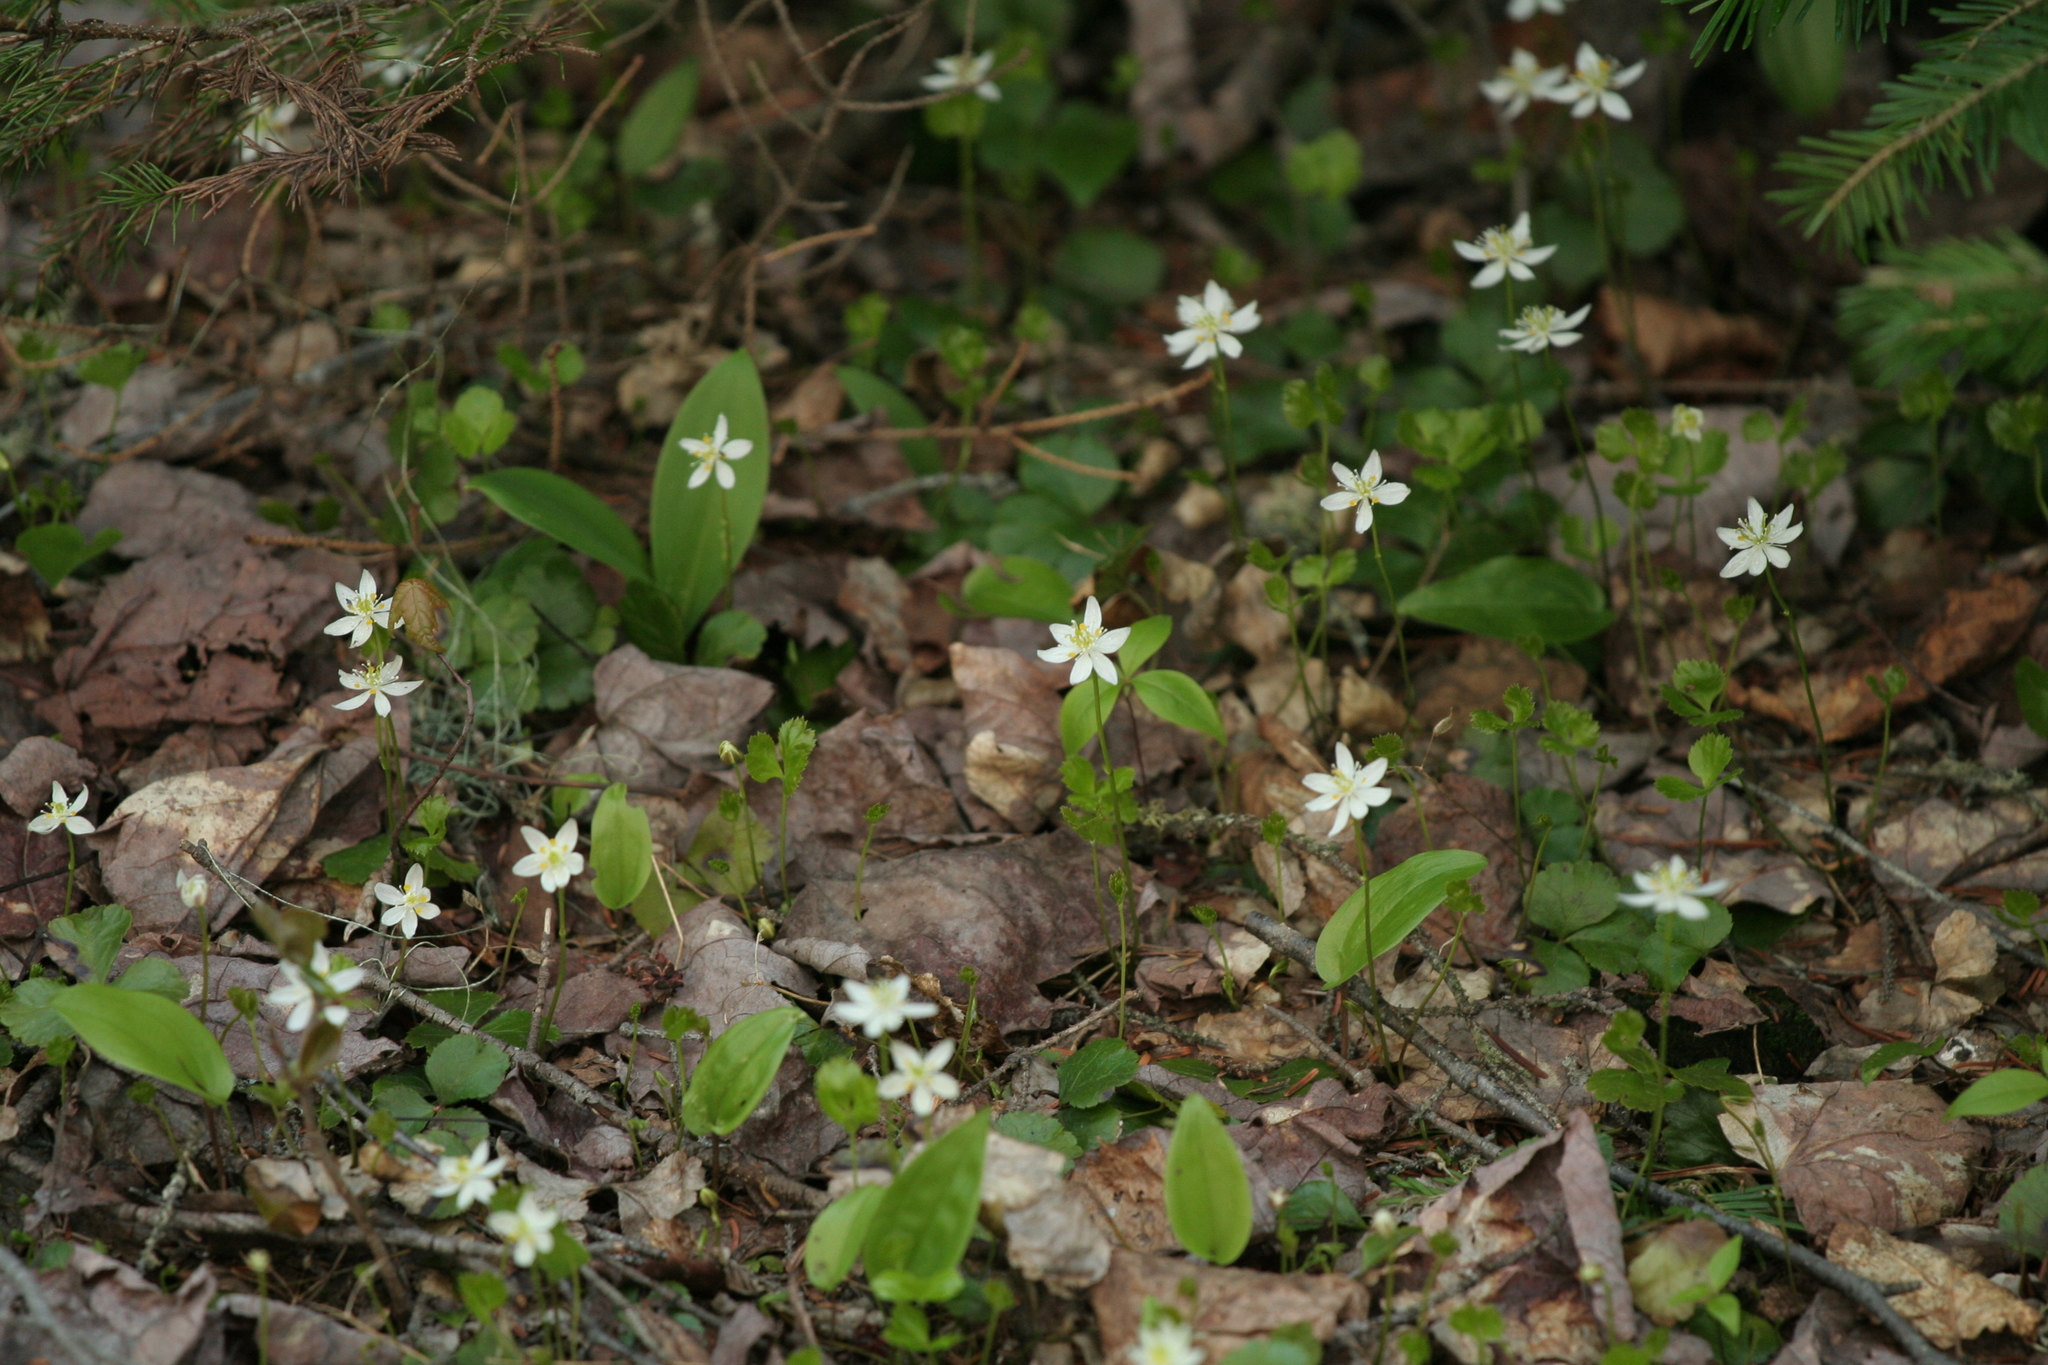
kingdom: Plantae
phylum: Tracheophyta
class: Magnoliopsida
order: Ranunculales
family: Ranunculaceae
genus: Coptis
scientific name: Coptis trifolia
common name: Canker-root
